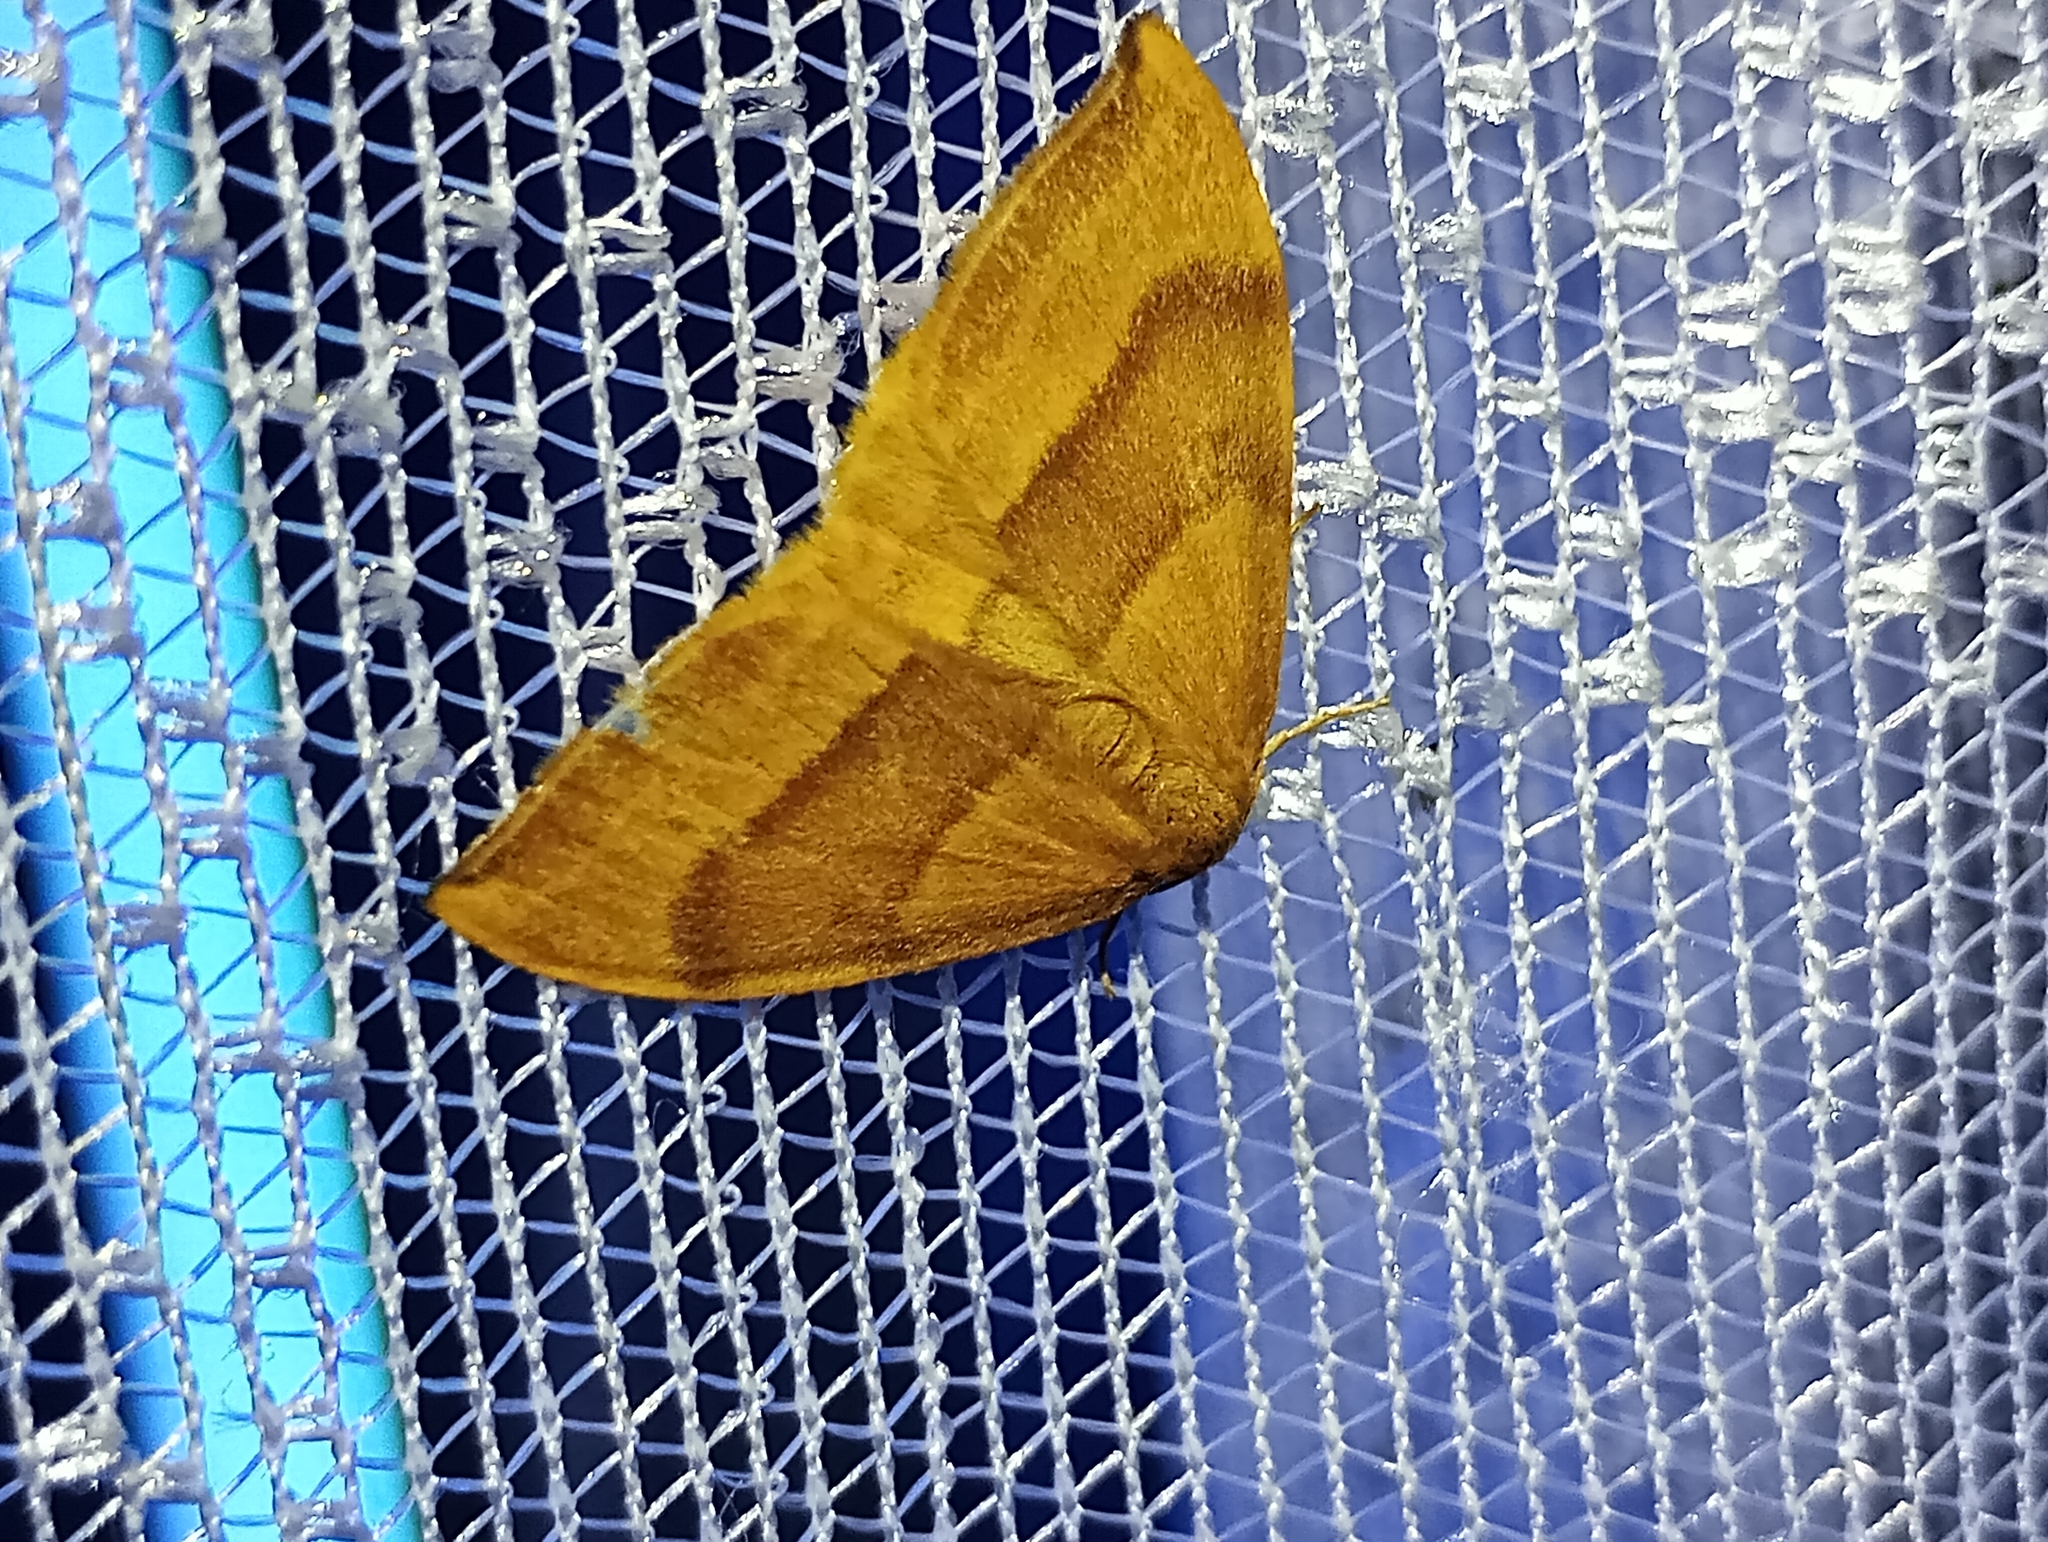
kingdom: Animalia
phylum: Arthropoda
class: Insecta
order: Lepidoptera
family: Drepanidae
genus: Watsonalla
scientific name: Watsonalla cultraria
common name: Barred hook-tip
